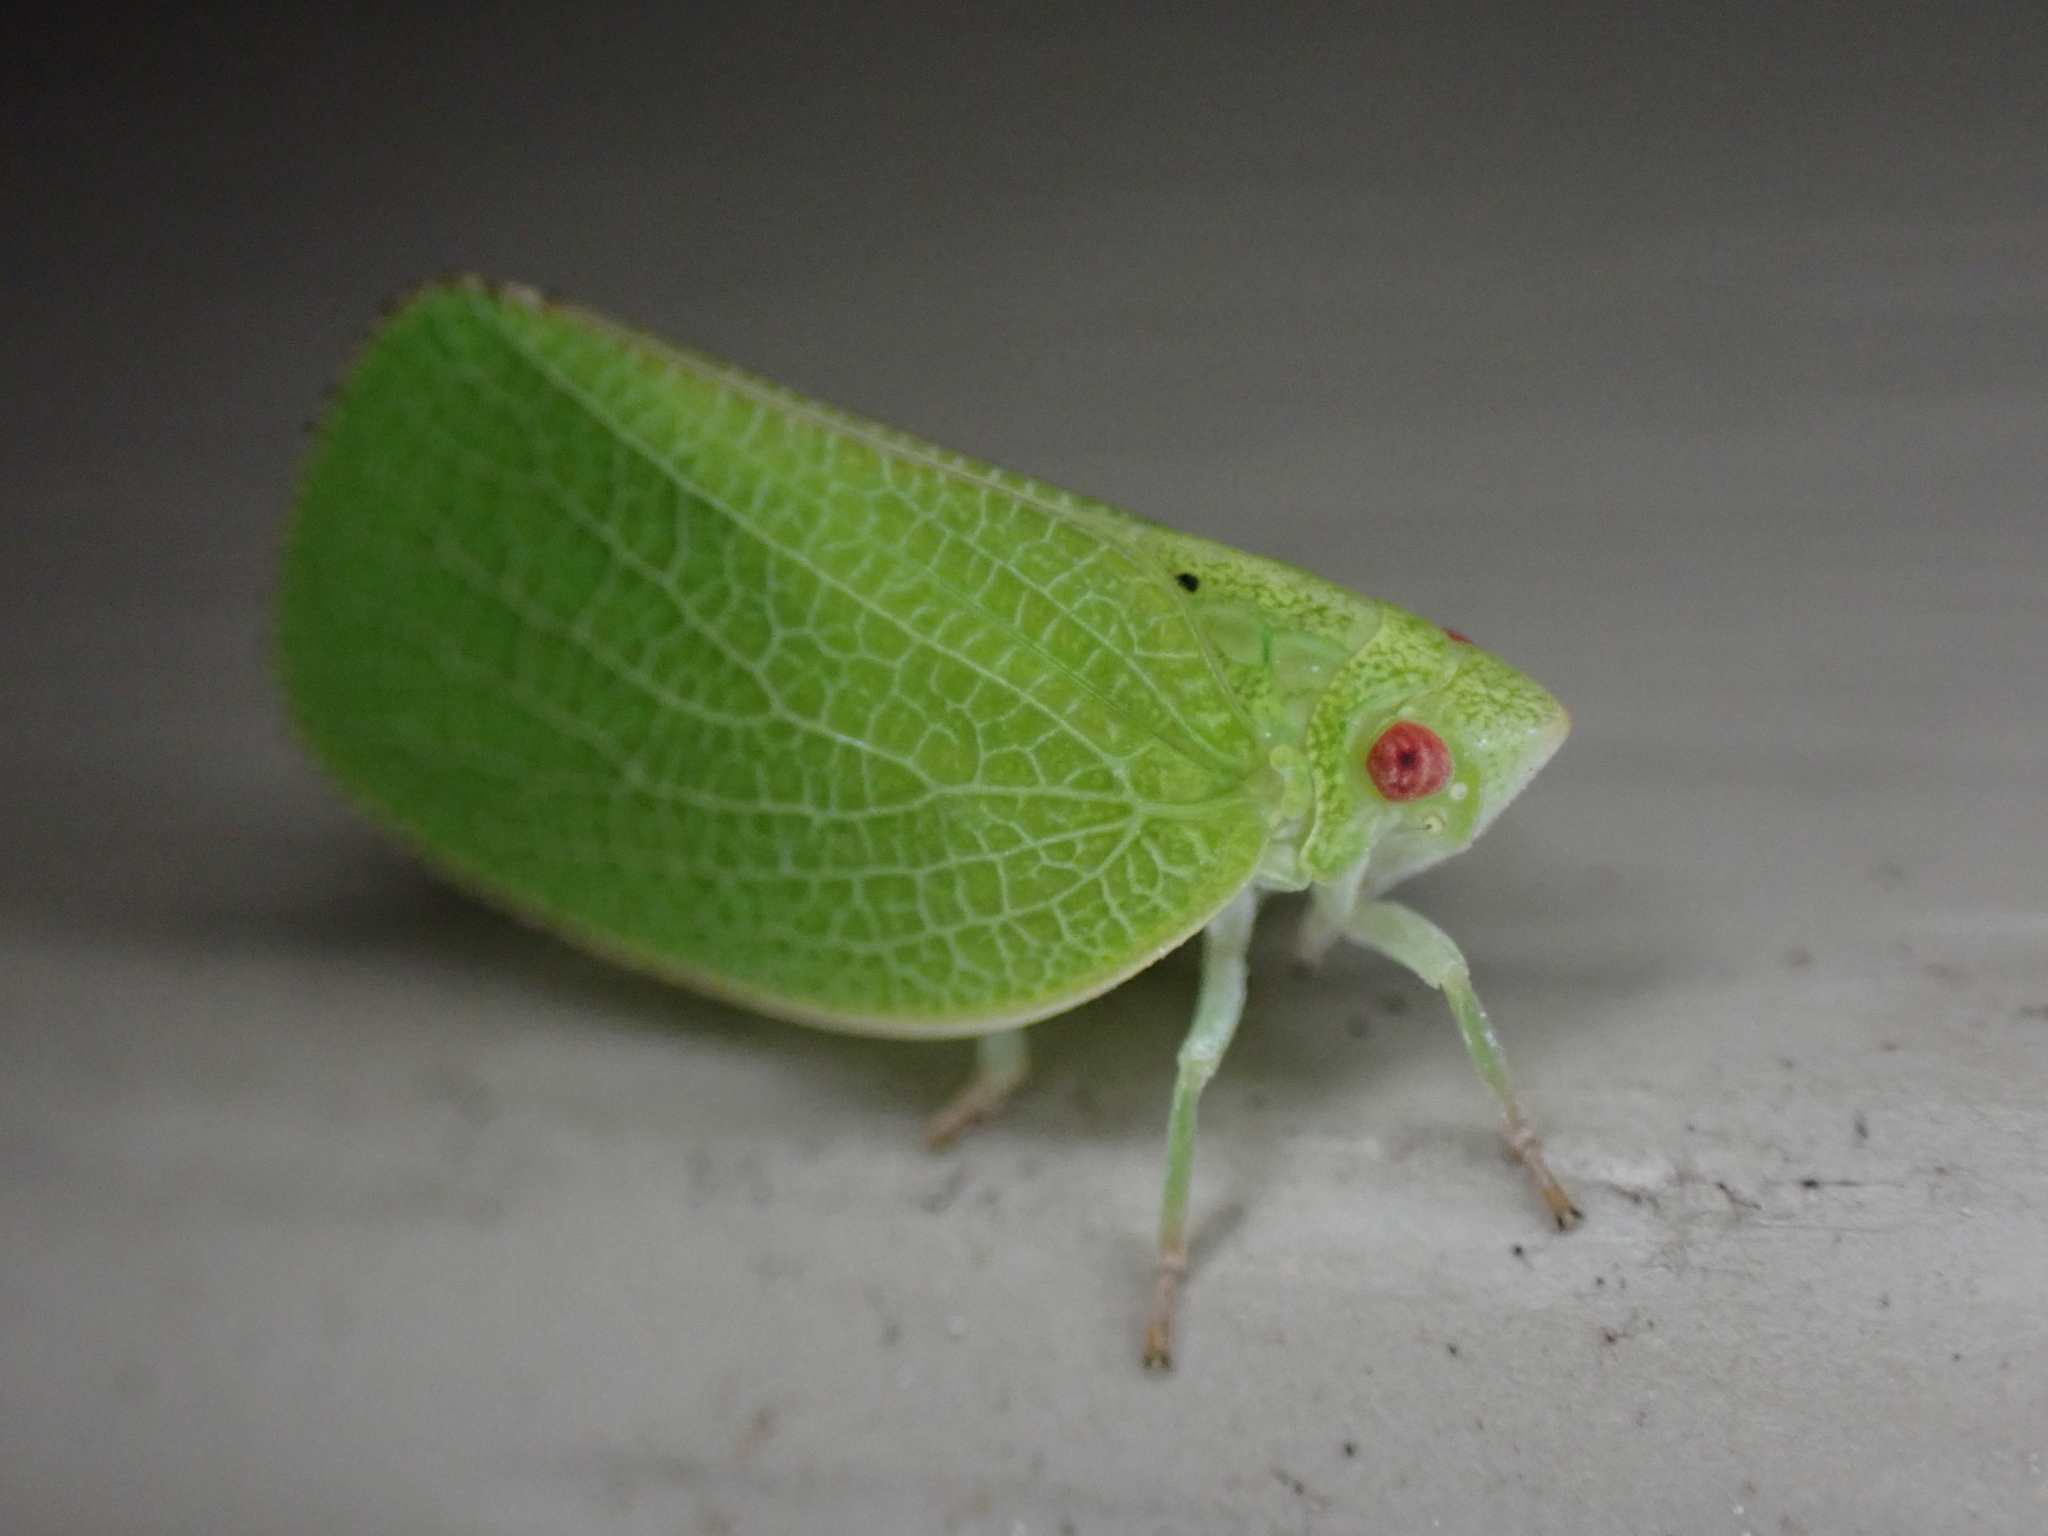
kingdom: Animalia
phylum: Arthropoda
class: Insecta
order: Hemiptera
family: Acanaloniidae
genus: Acanalonia
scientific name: Acanalonia conica
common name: Green cone-headed planthopper
